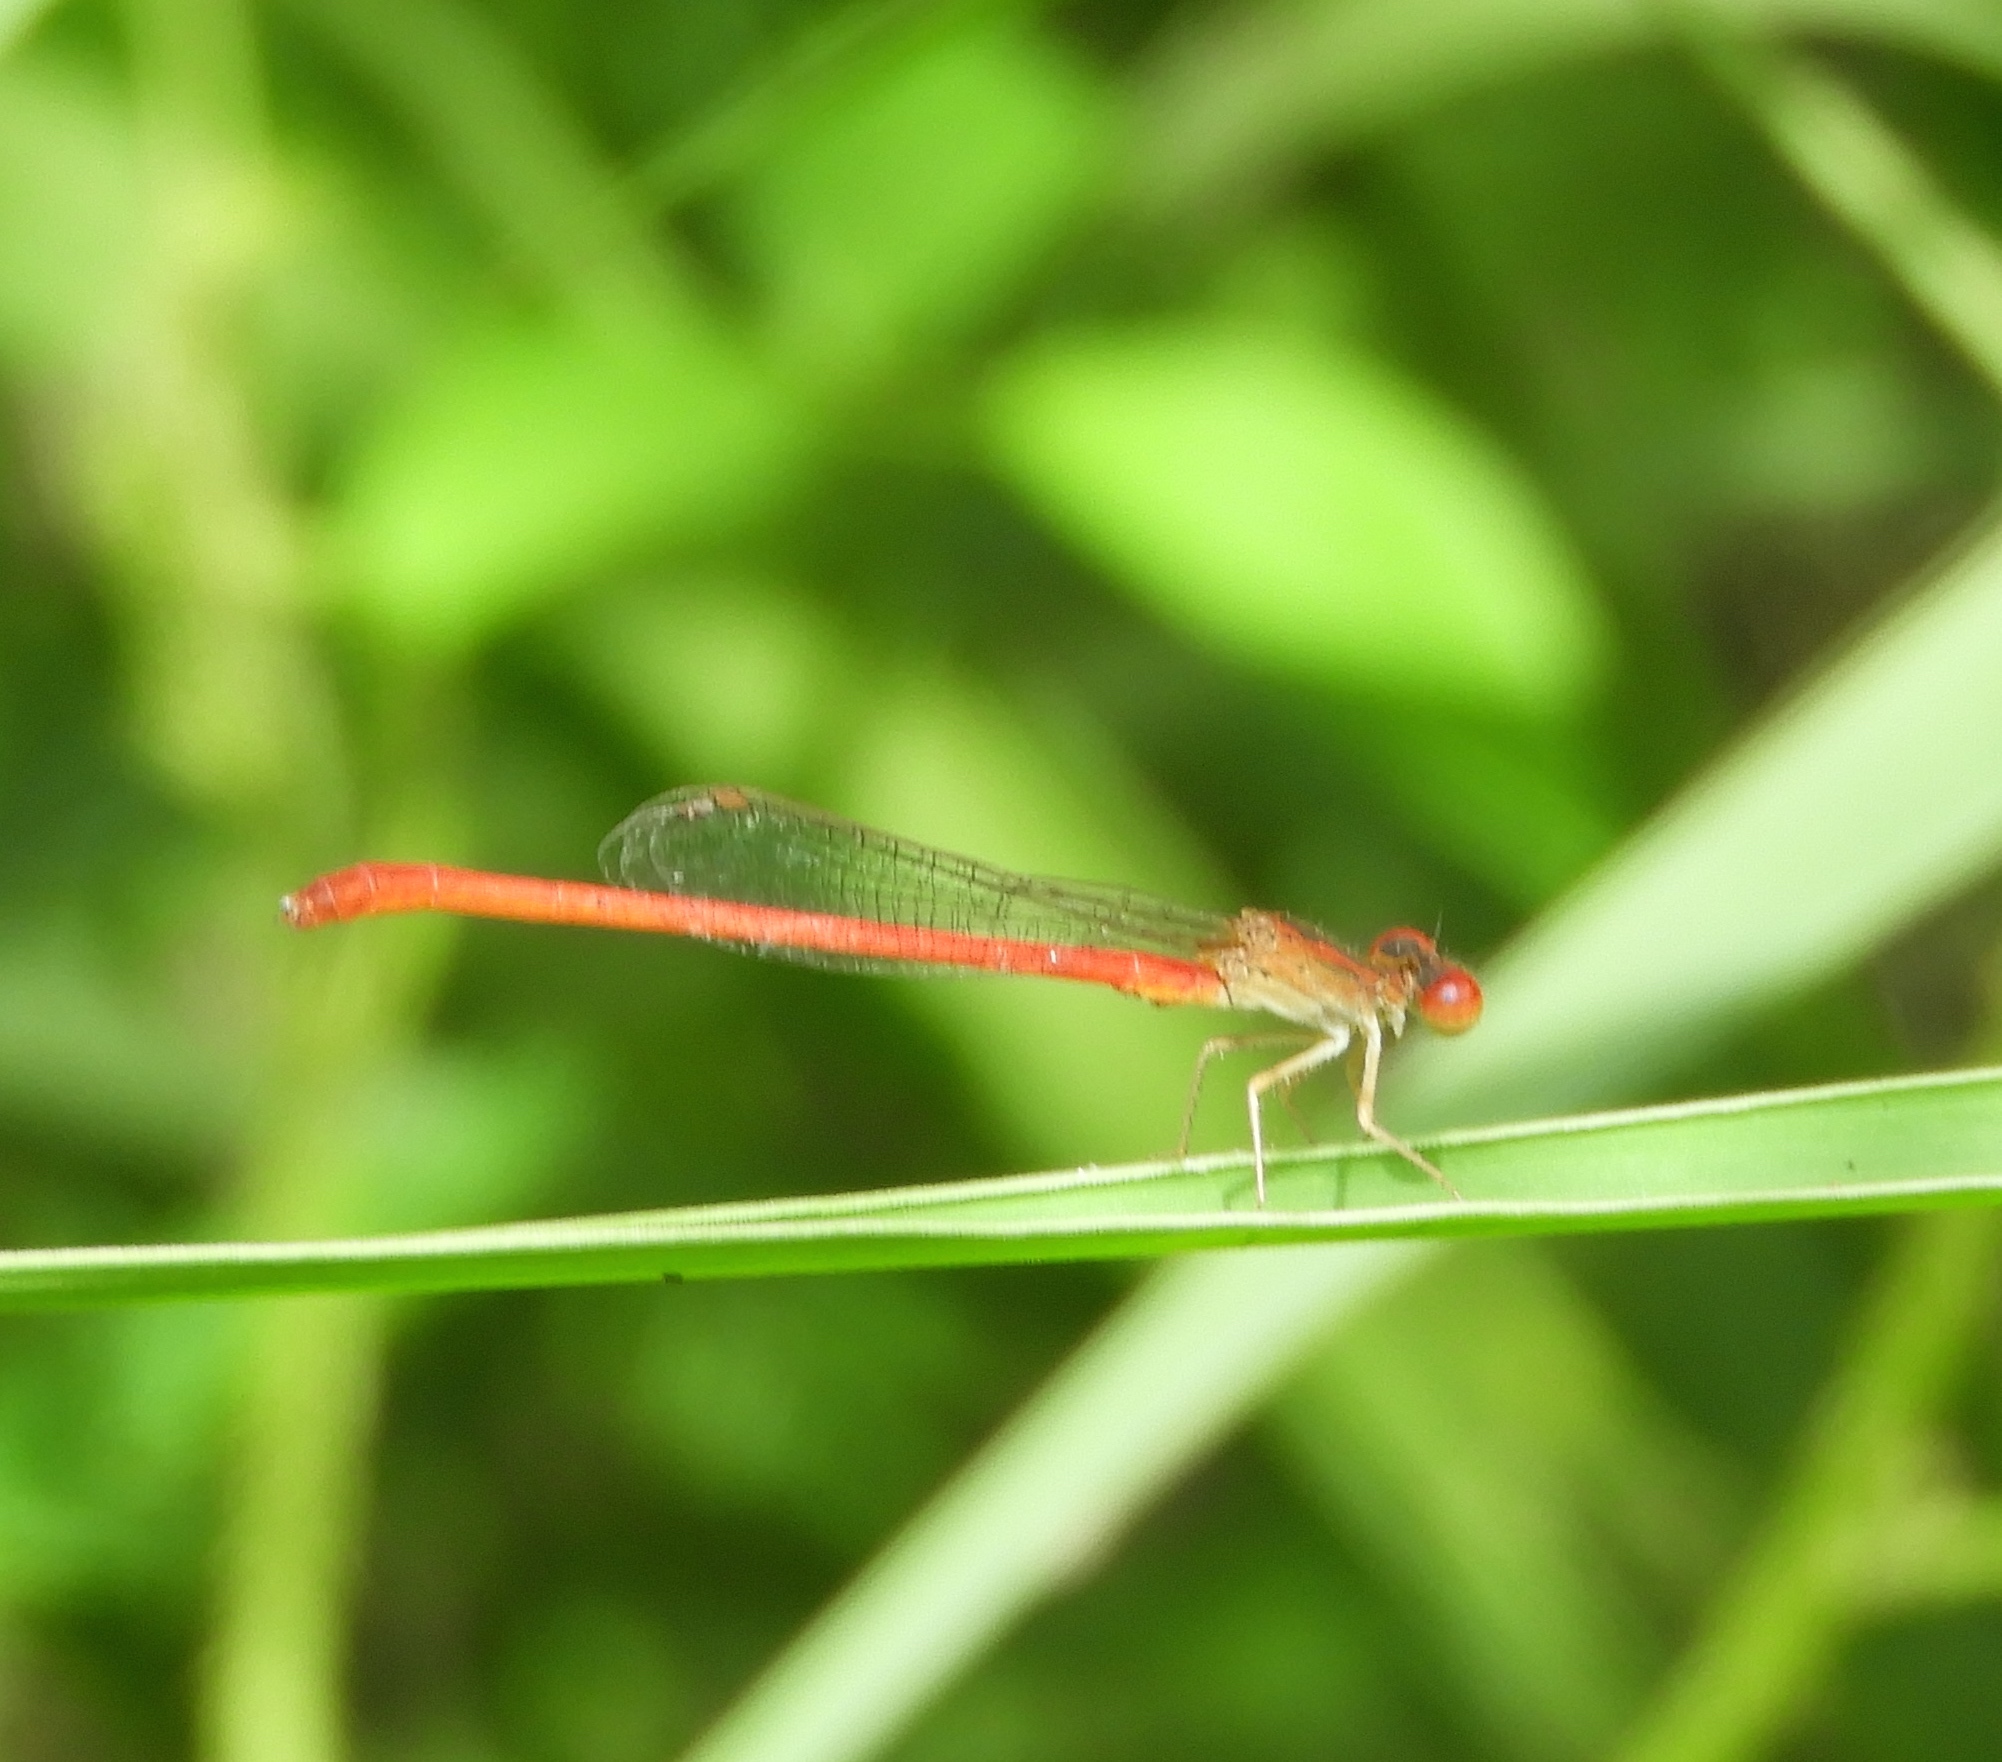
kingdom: Animalia
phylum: Arthropoda
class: Insecta
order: Odonata
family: Coenagrionidae
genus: Telebasis
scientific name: Telebasis salva
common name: Desert firetail
